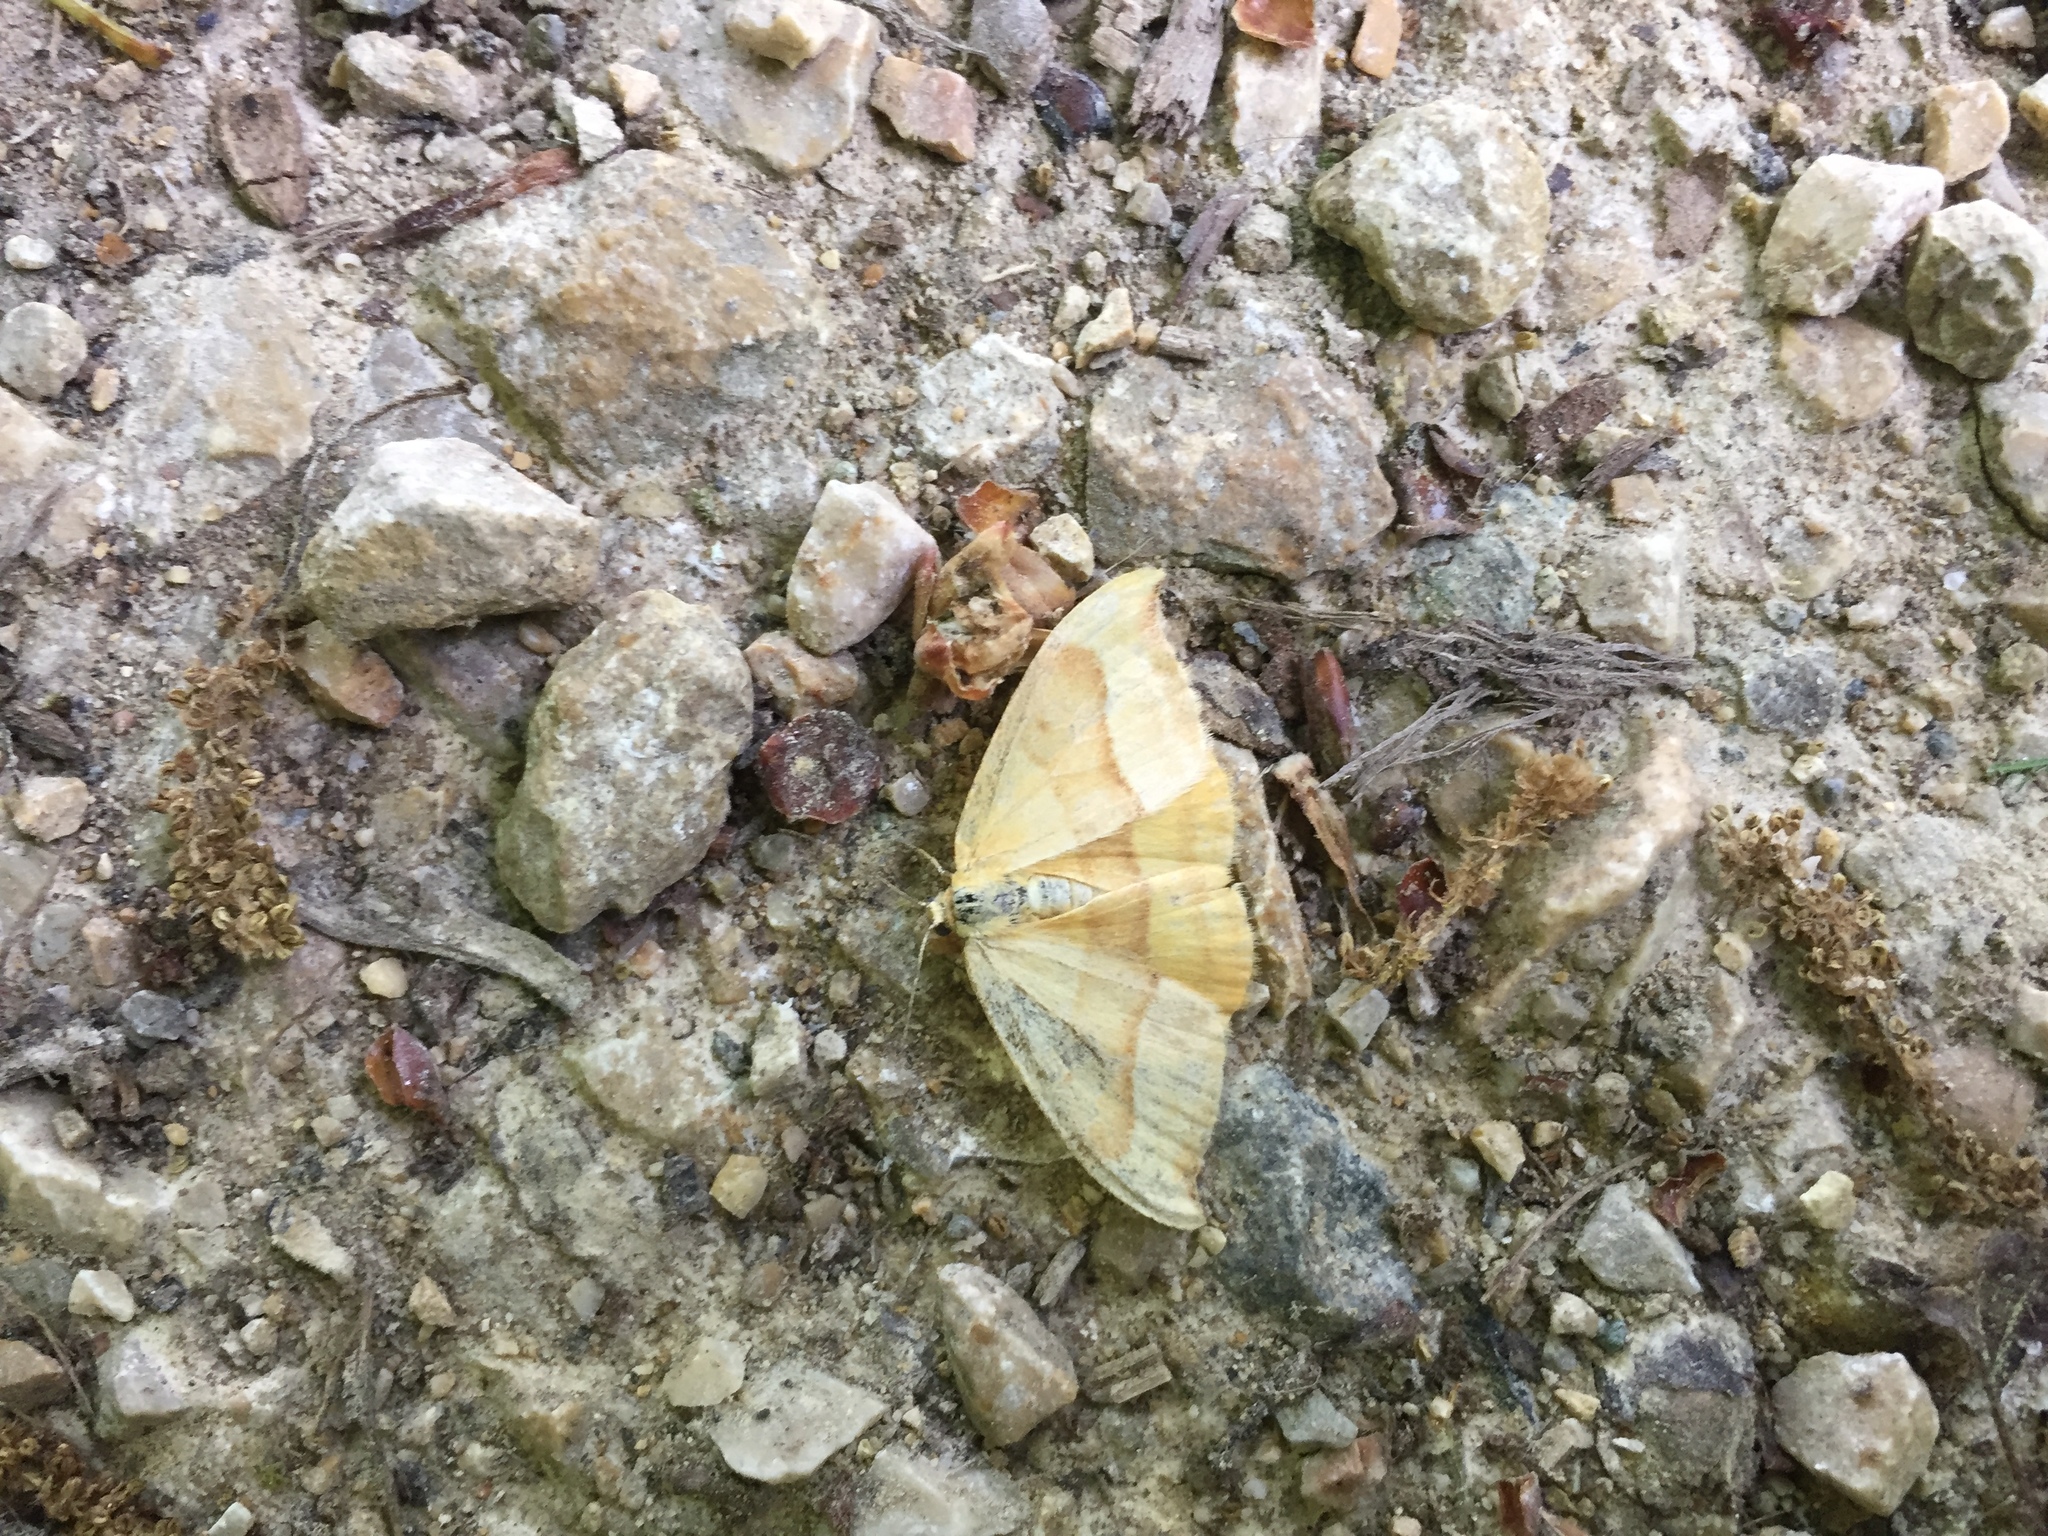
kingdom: Animalia
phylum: Arthropoda
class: Insecta
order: Lepidoptera
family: Drepanidae
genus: Watsonalla
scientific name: Watsonalla cultraria
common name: Barred hook-tip
